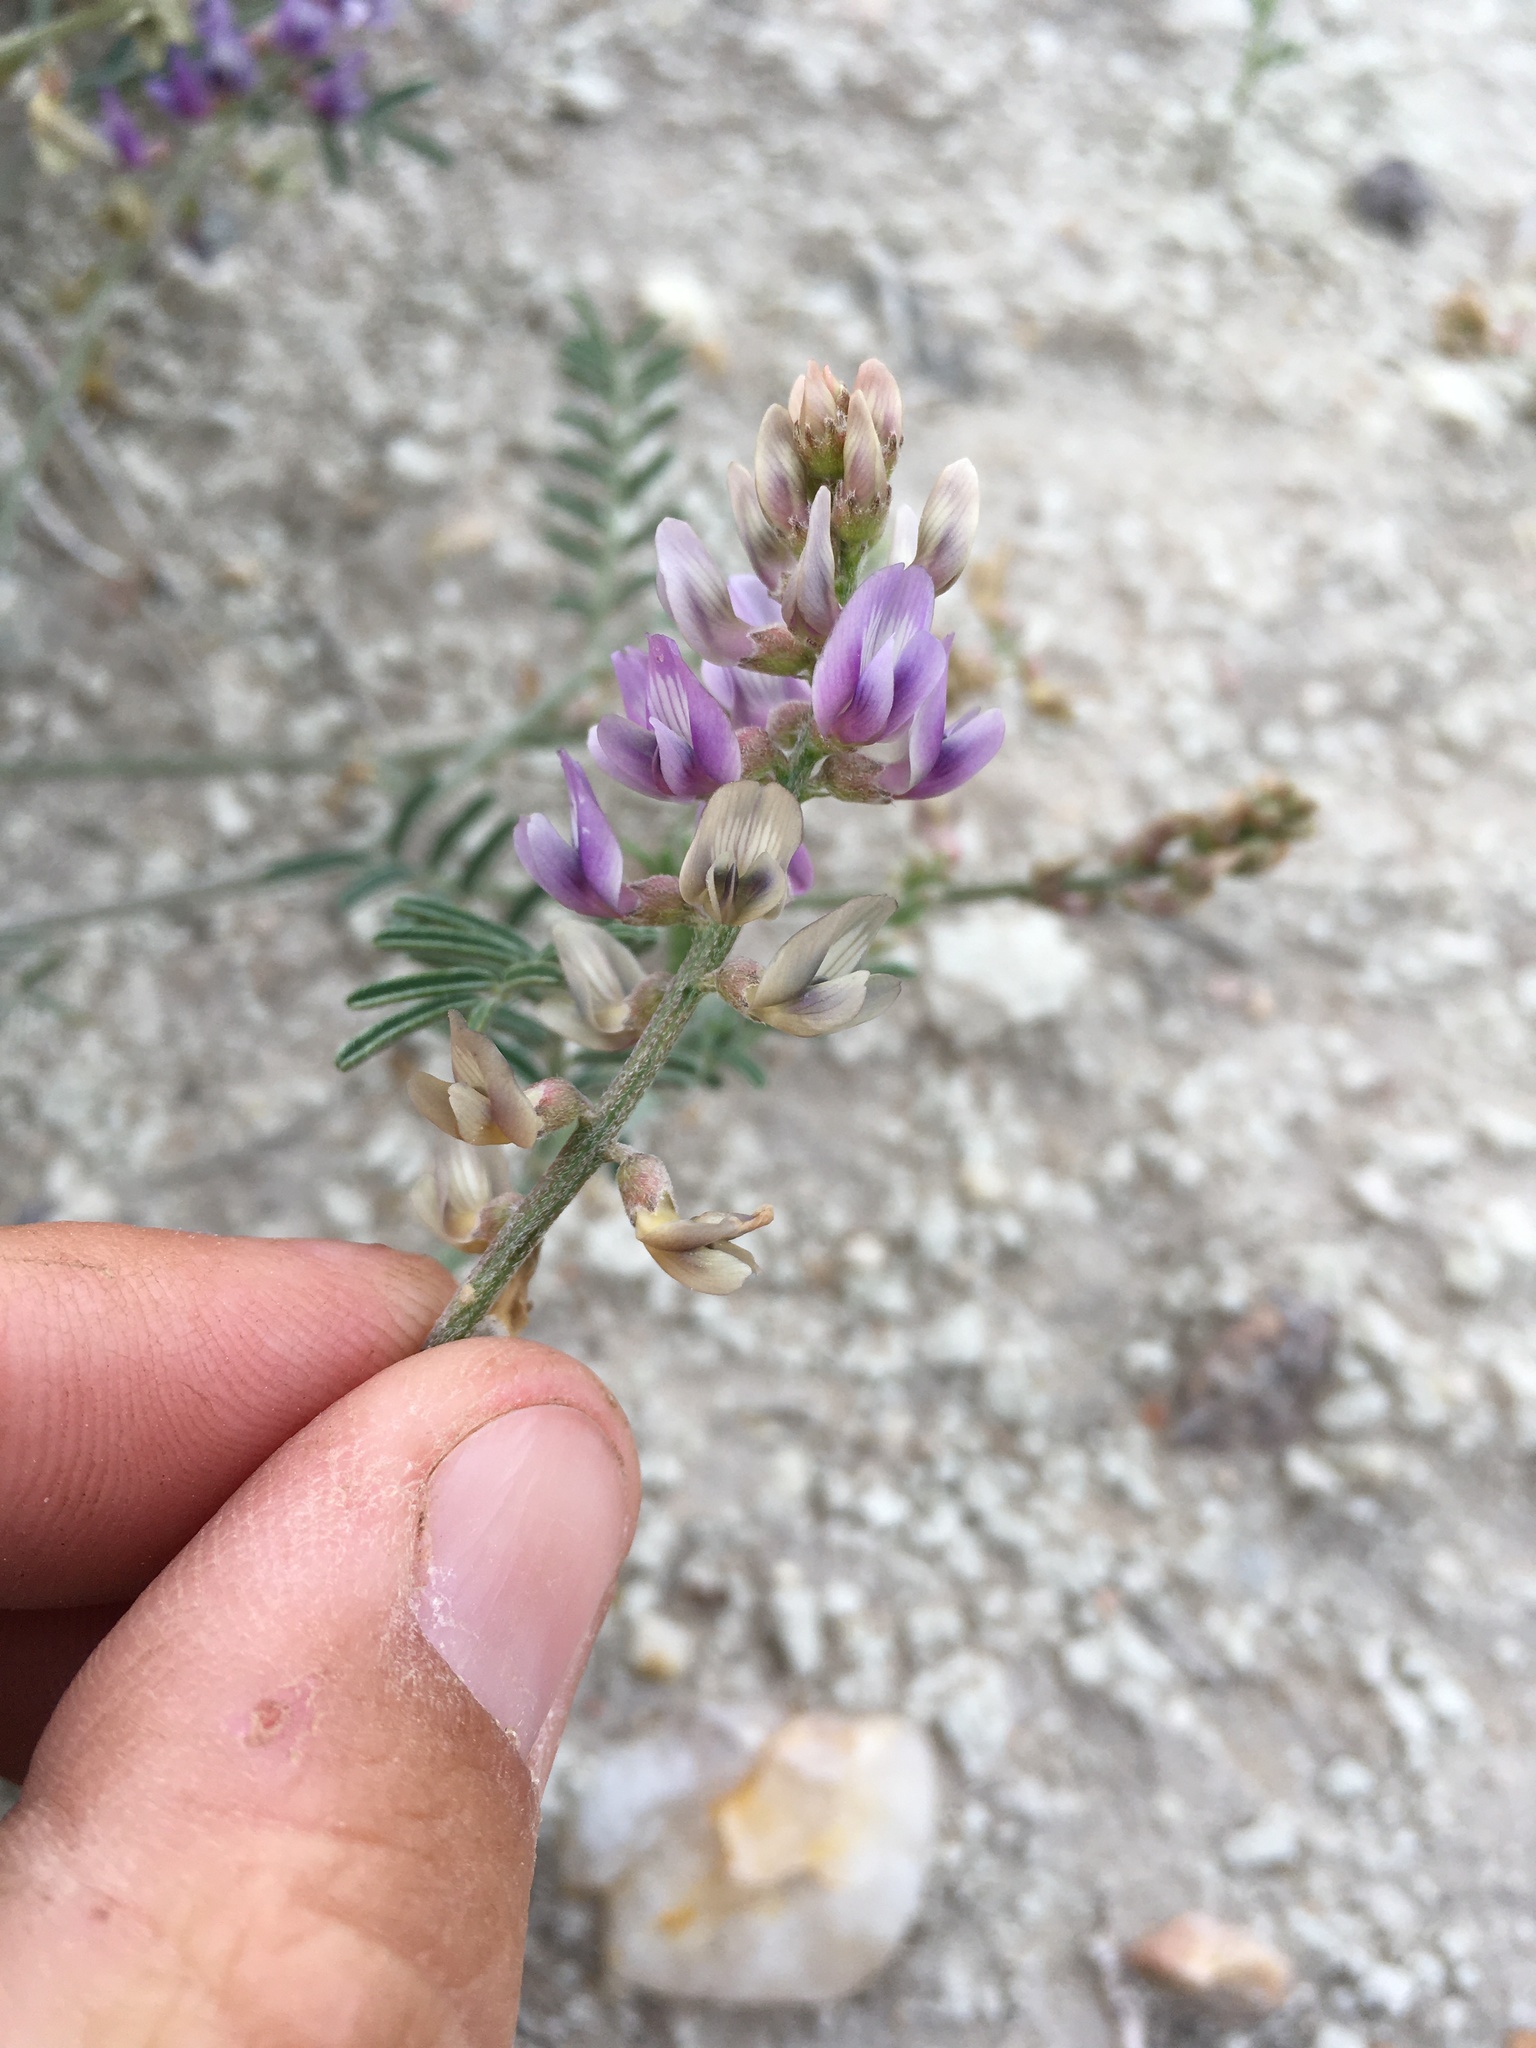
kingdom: Plantae
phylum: Tracheophyta
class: Magnoliopsida
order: Fabales
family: Fabaceae
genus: Astragalus
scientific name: Astragalus gracilis
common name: Slender milk-vetch
